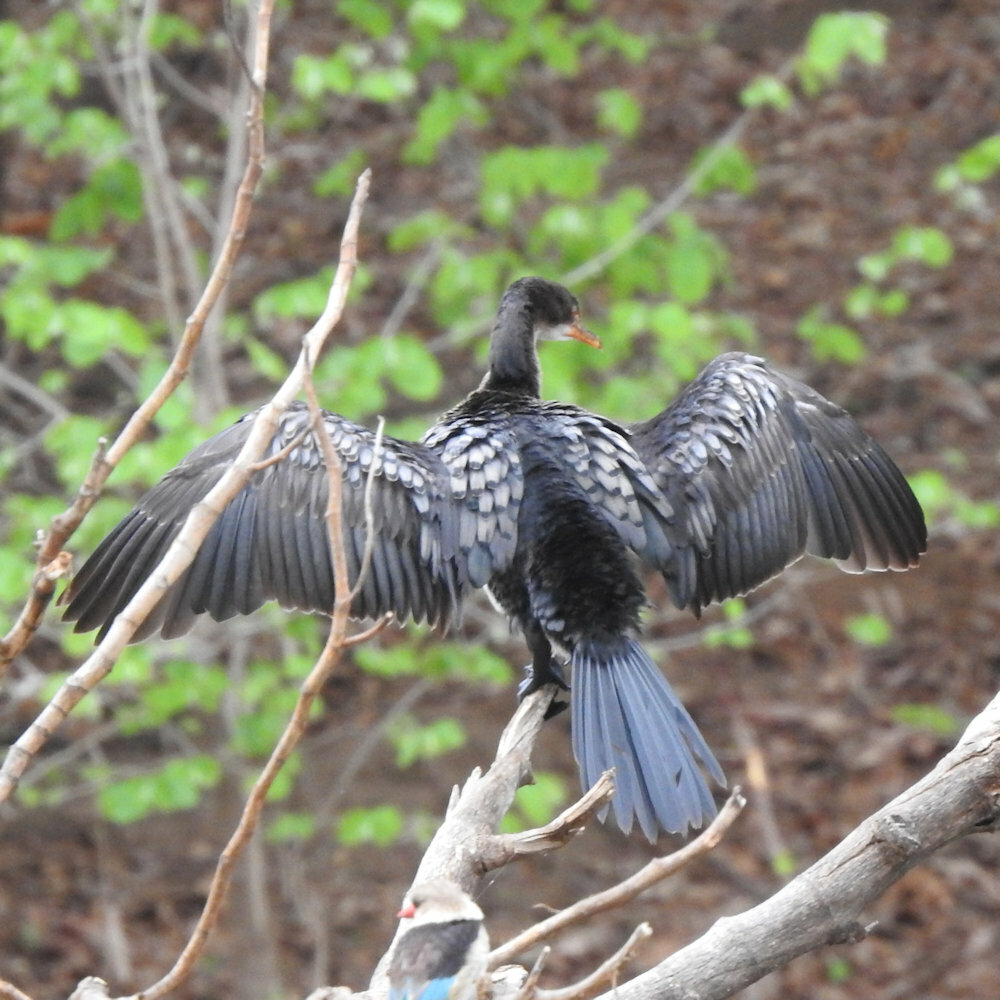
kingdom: Animalia
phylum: Chordata
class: Aves
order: Suliformes
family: Phalacrocoracidae
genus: Microcarbo
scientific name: Microcarbo africanus
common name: Long-tailed cormorant
